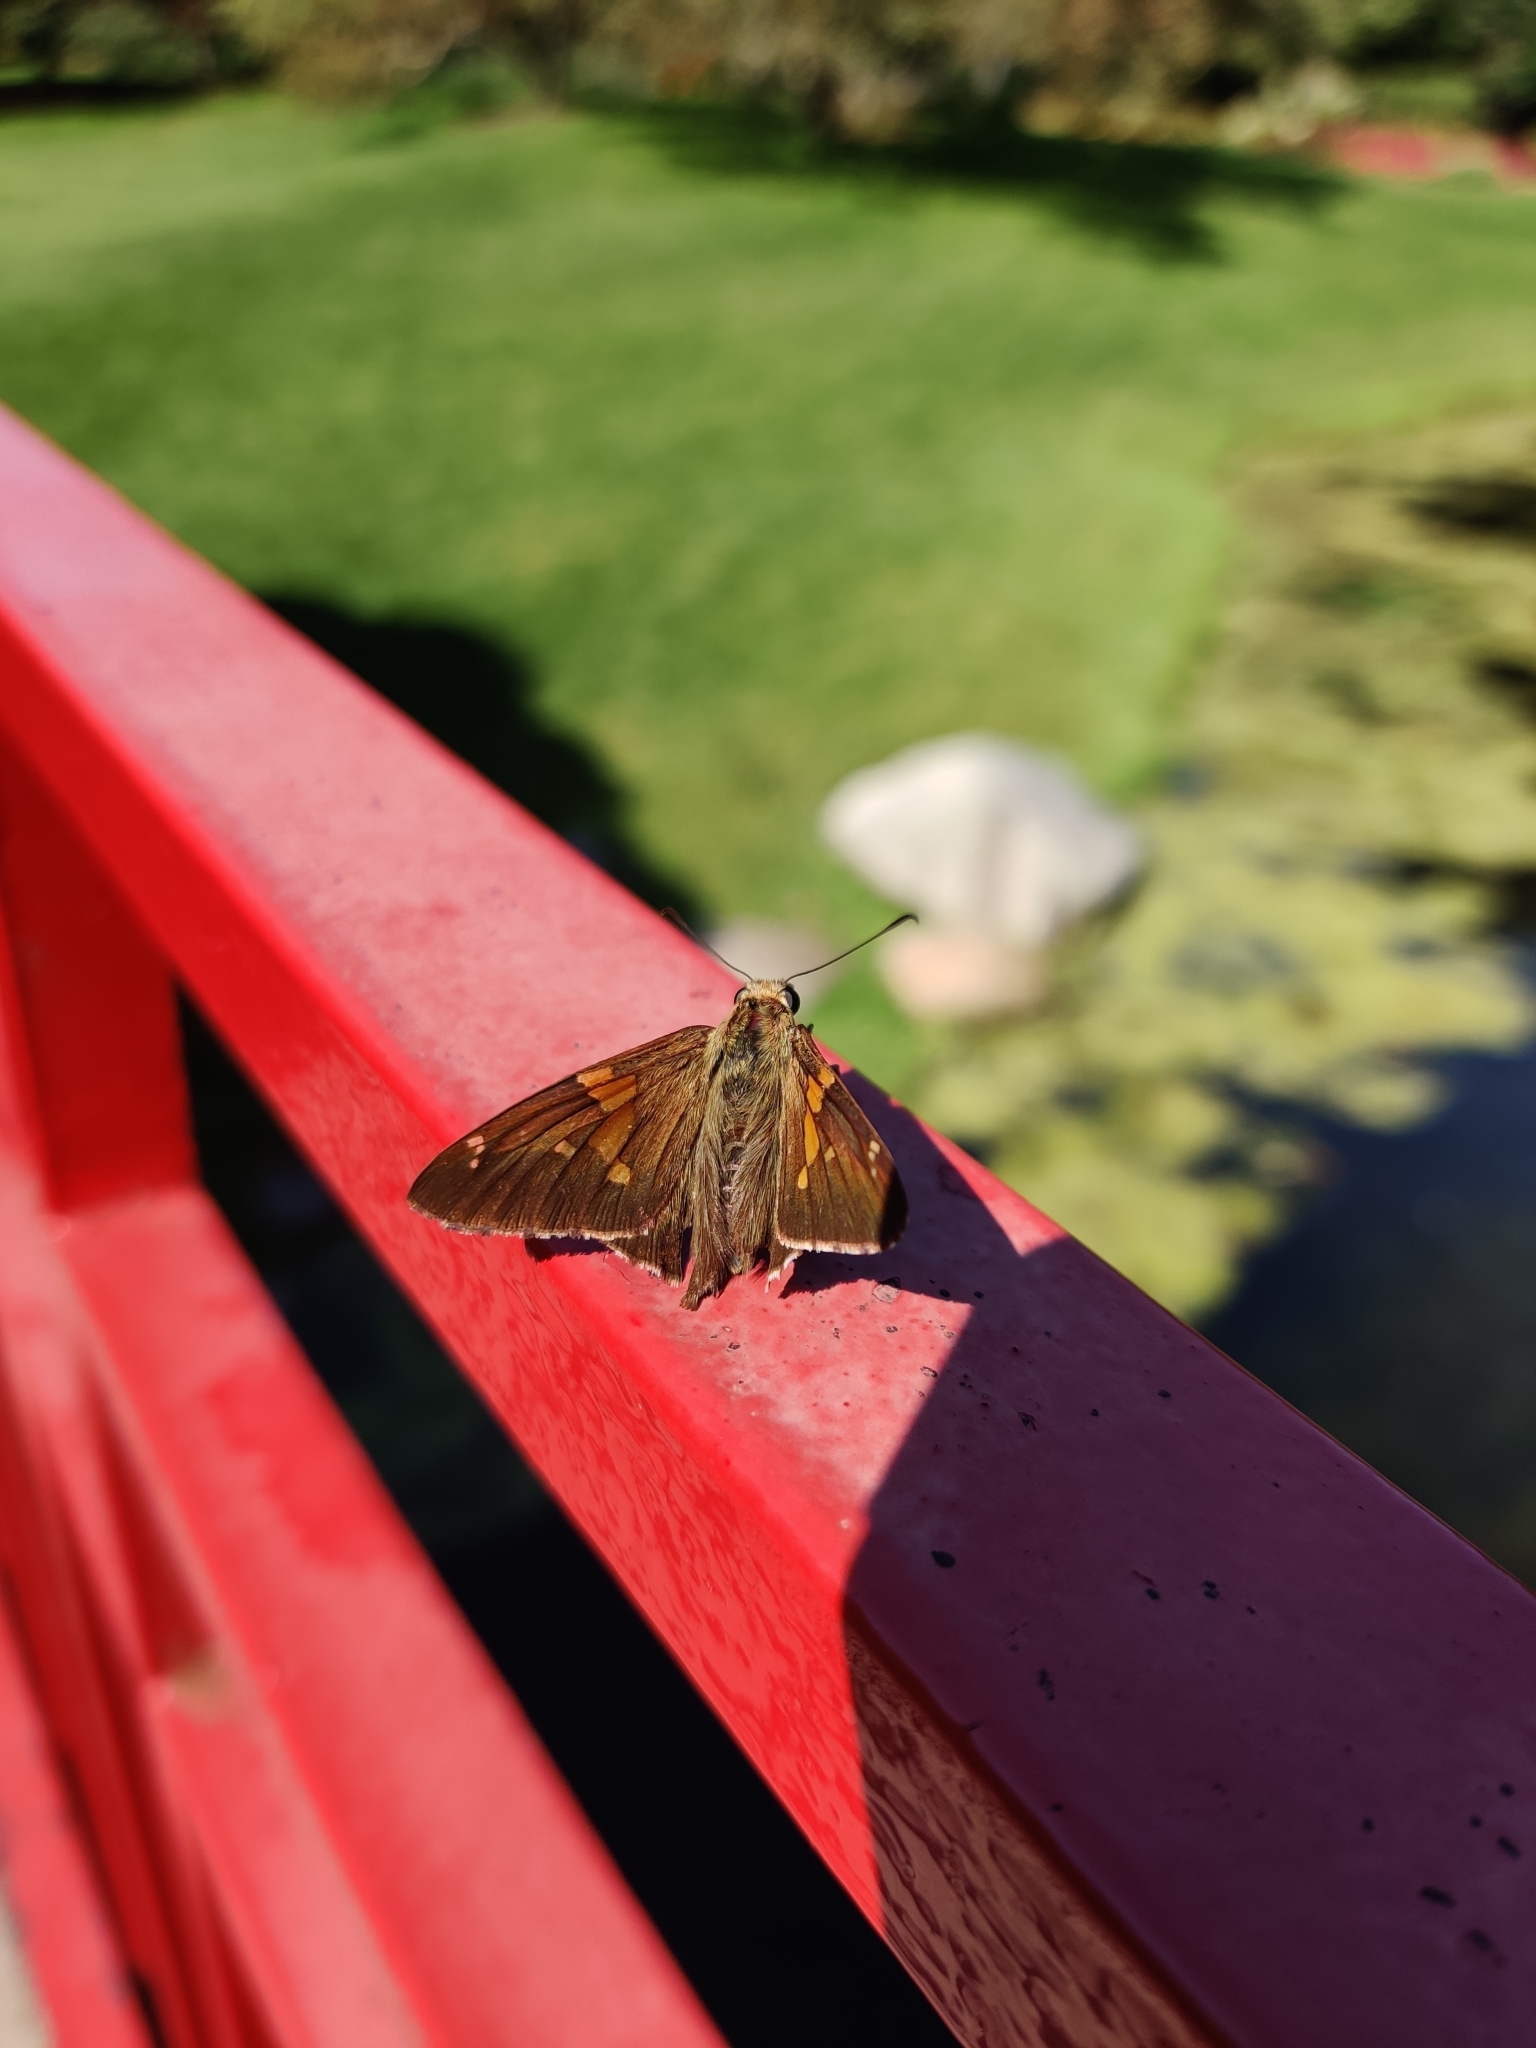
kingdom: Animalia
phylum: Arthropoda
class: Insecta
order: Lepidoptera
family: Hesperiidae
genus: Epargyreus
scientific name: Epargyreus clarus
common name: Silver-spotted skipper
